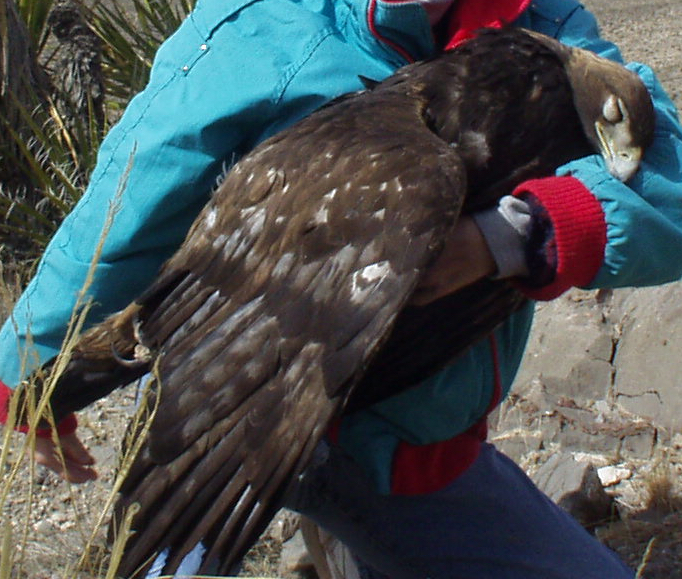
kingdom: Animalia
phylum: Chordata
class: Aves
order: Accipitriformes
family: Accipitridae
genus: Aquila
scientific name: Aquila chrysaetos
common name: Golden eagle
